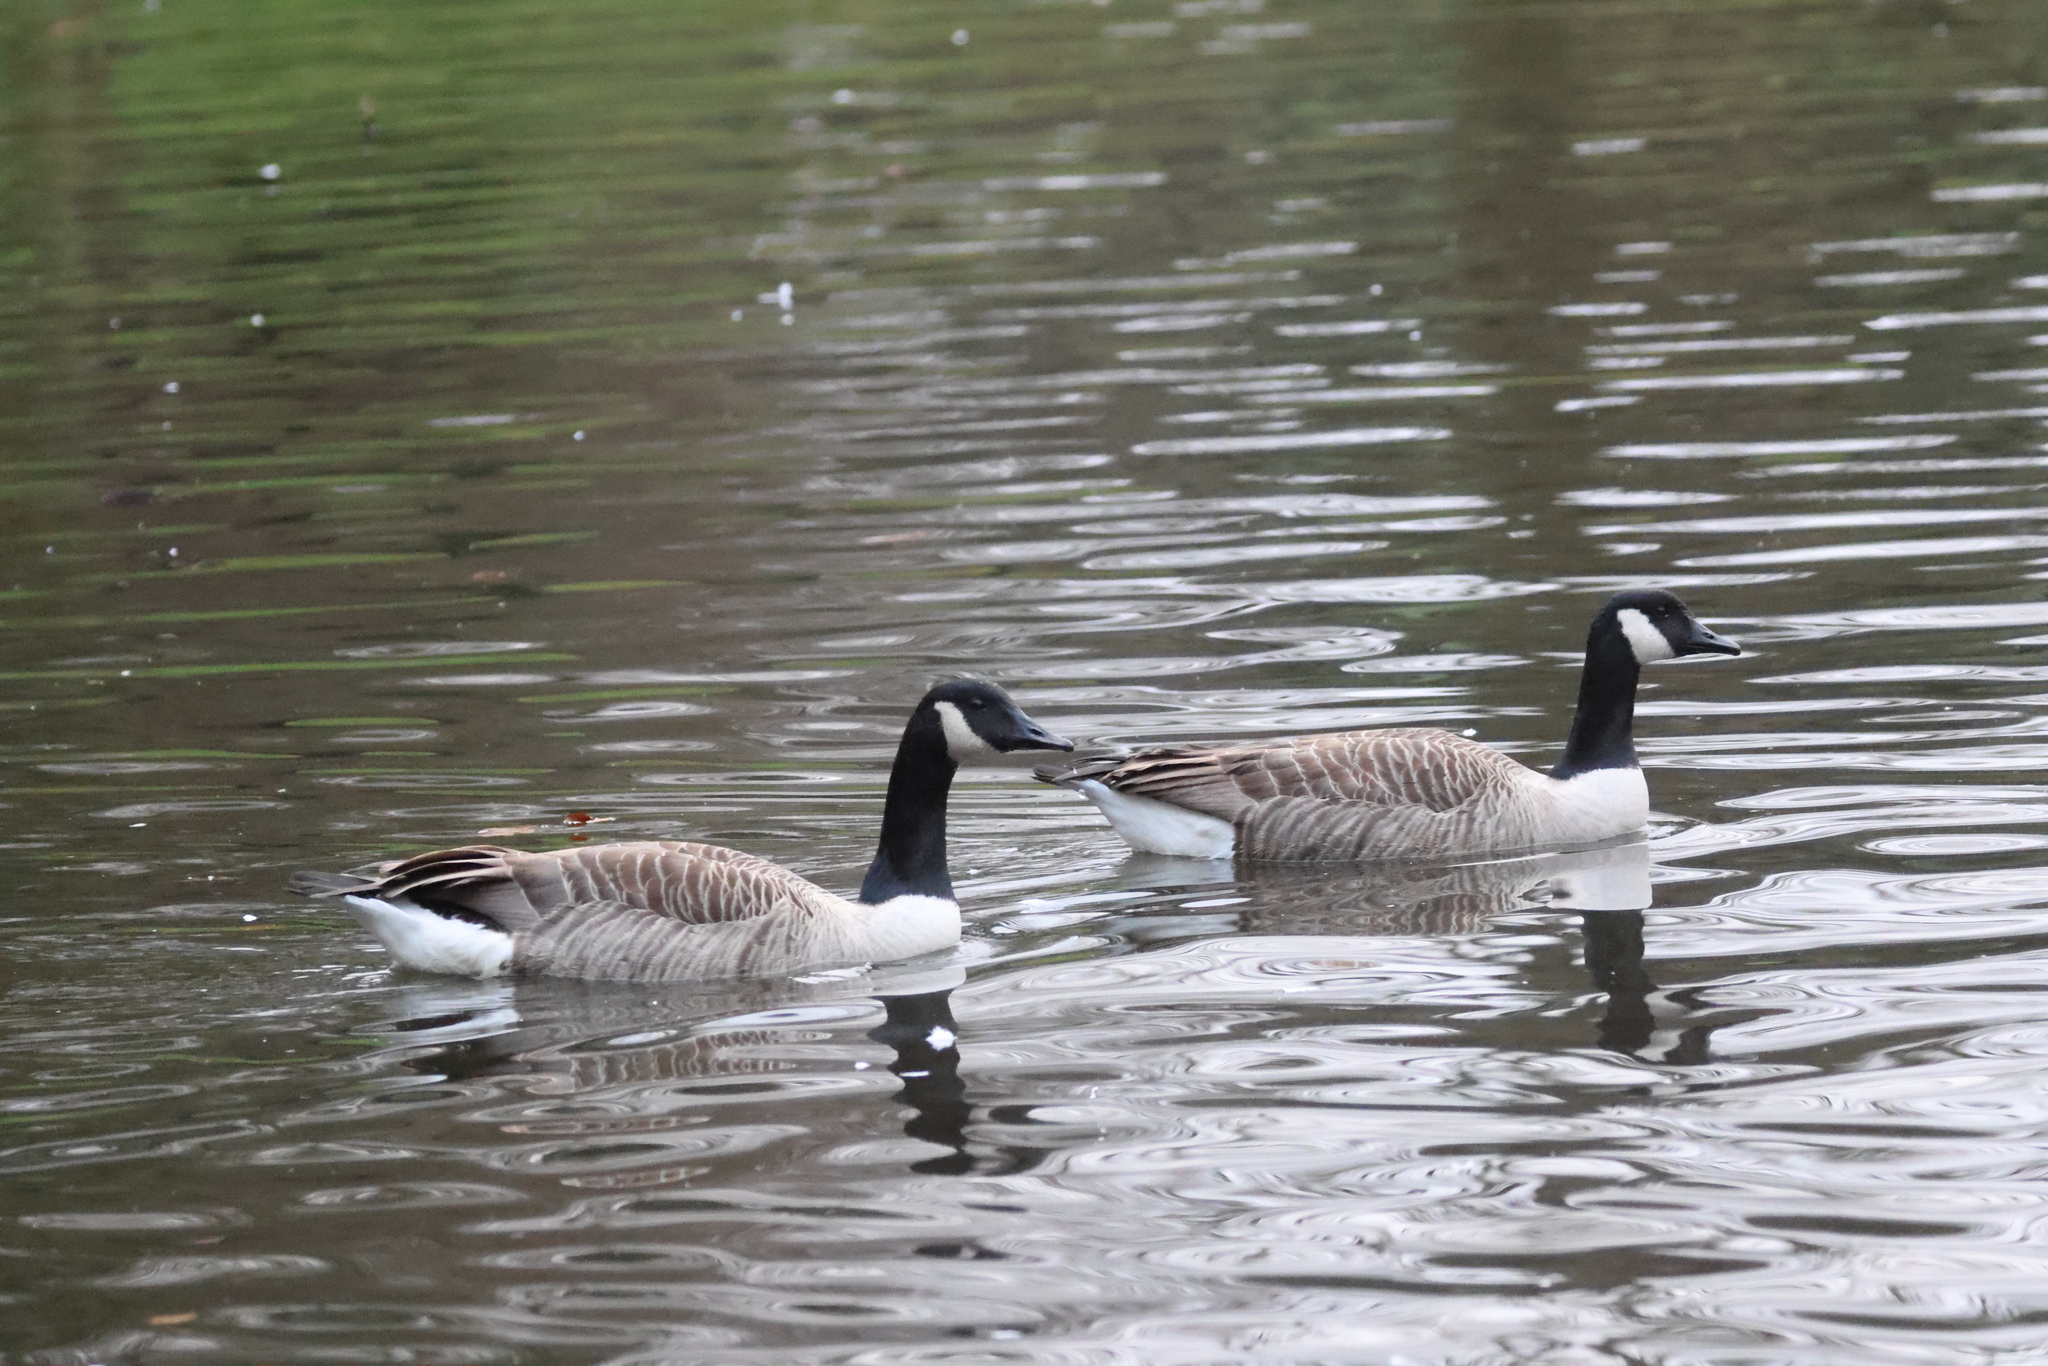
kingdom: Animalia
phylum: Chordata
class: Aves
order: Anseriformes
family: Anatidae
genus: Branta
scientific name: Branta canadensis
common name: Canada goose
